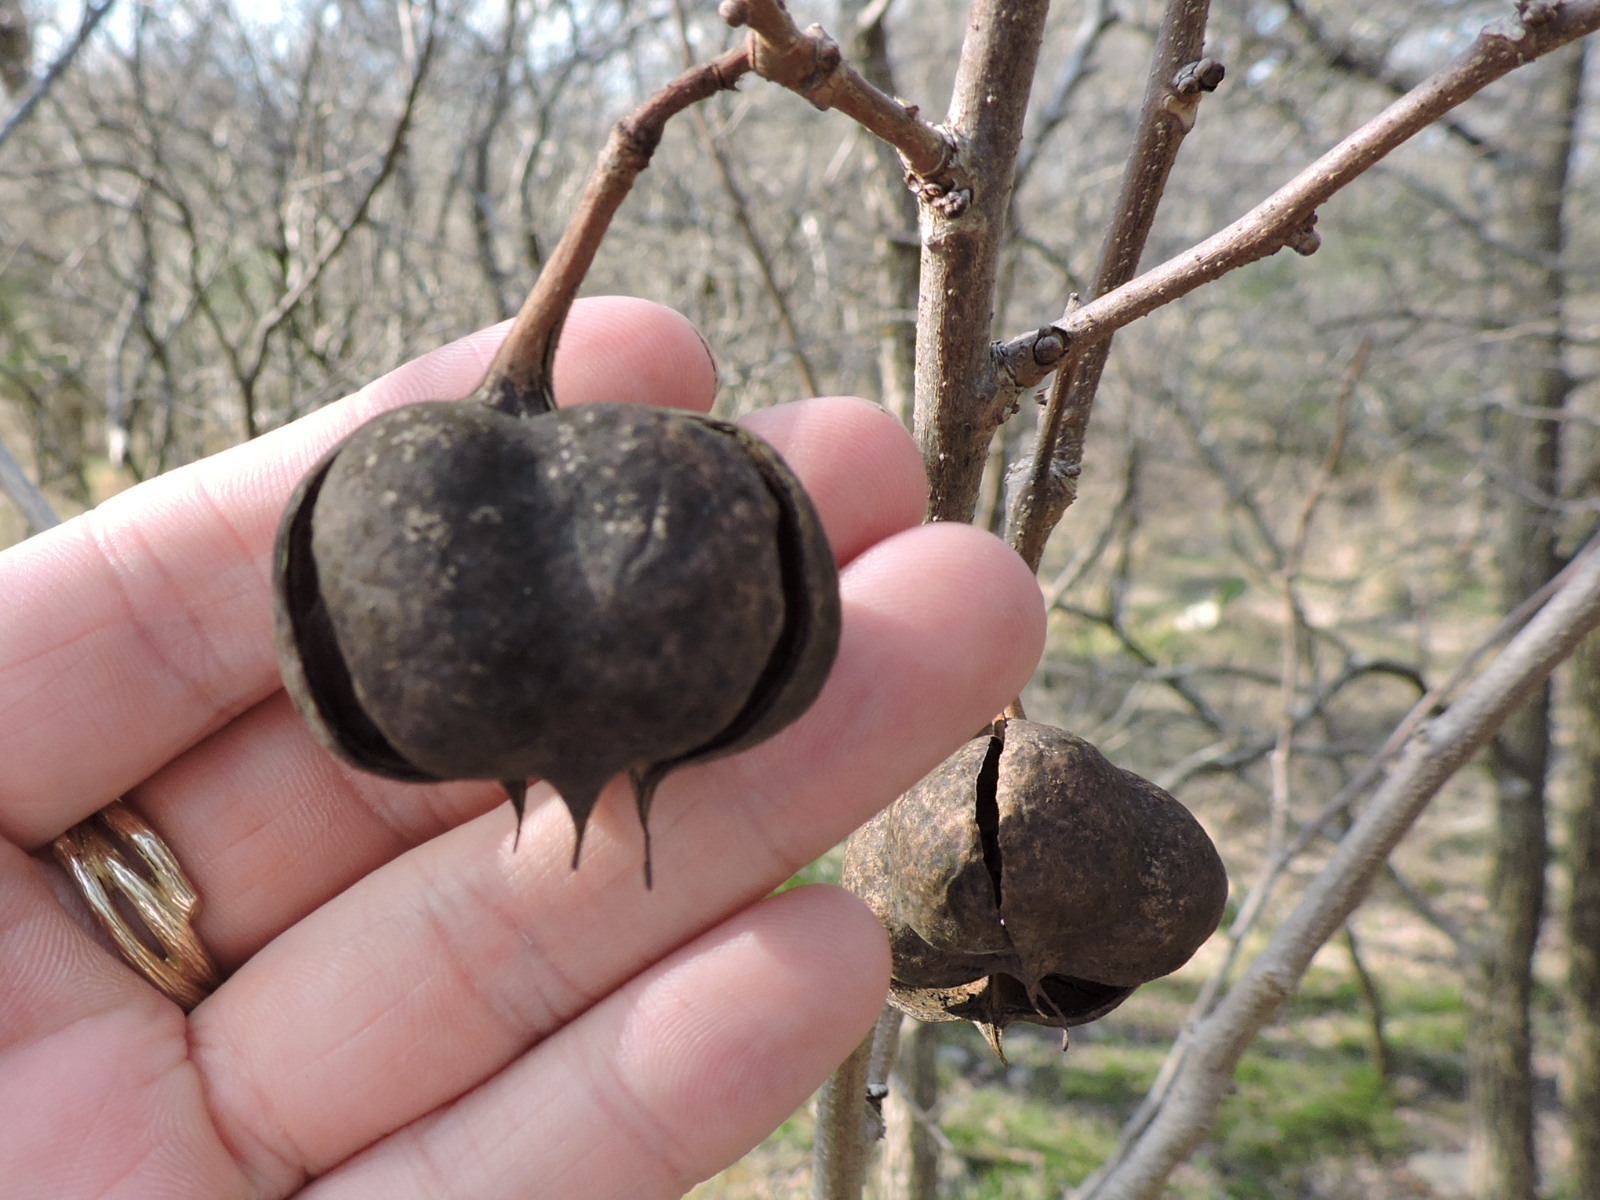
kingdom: Plantae
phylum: Tracheophyta
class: Magnoliopsida
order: Sapindales
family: Sapindaceae
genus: Ungnadia
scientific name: Ungnadia speciosa
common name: Texas-buckeye
